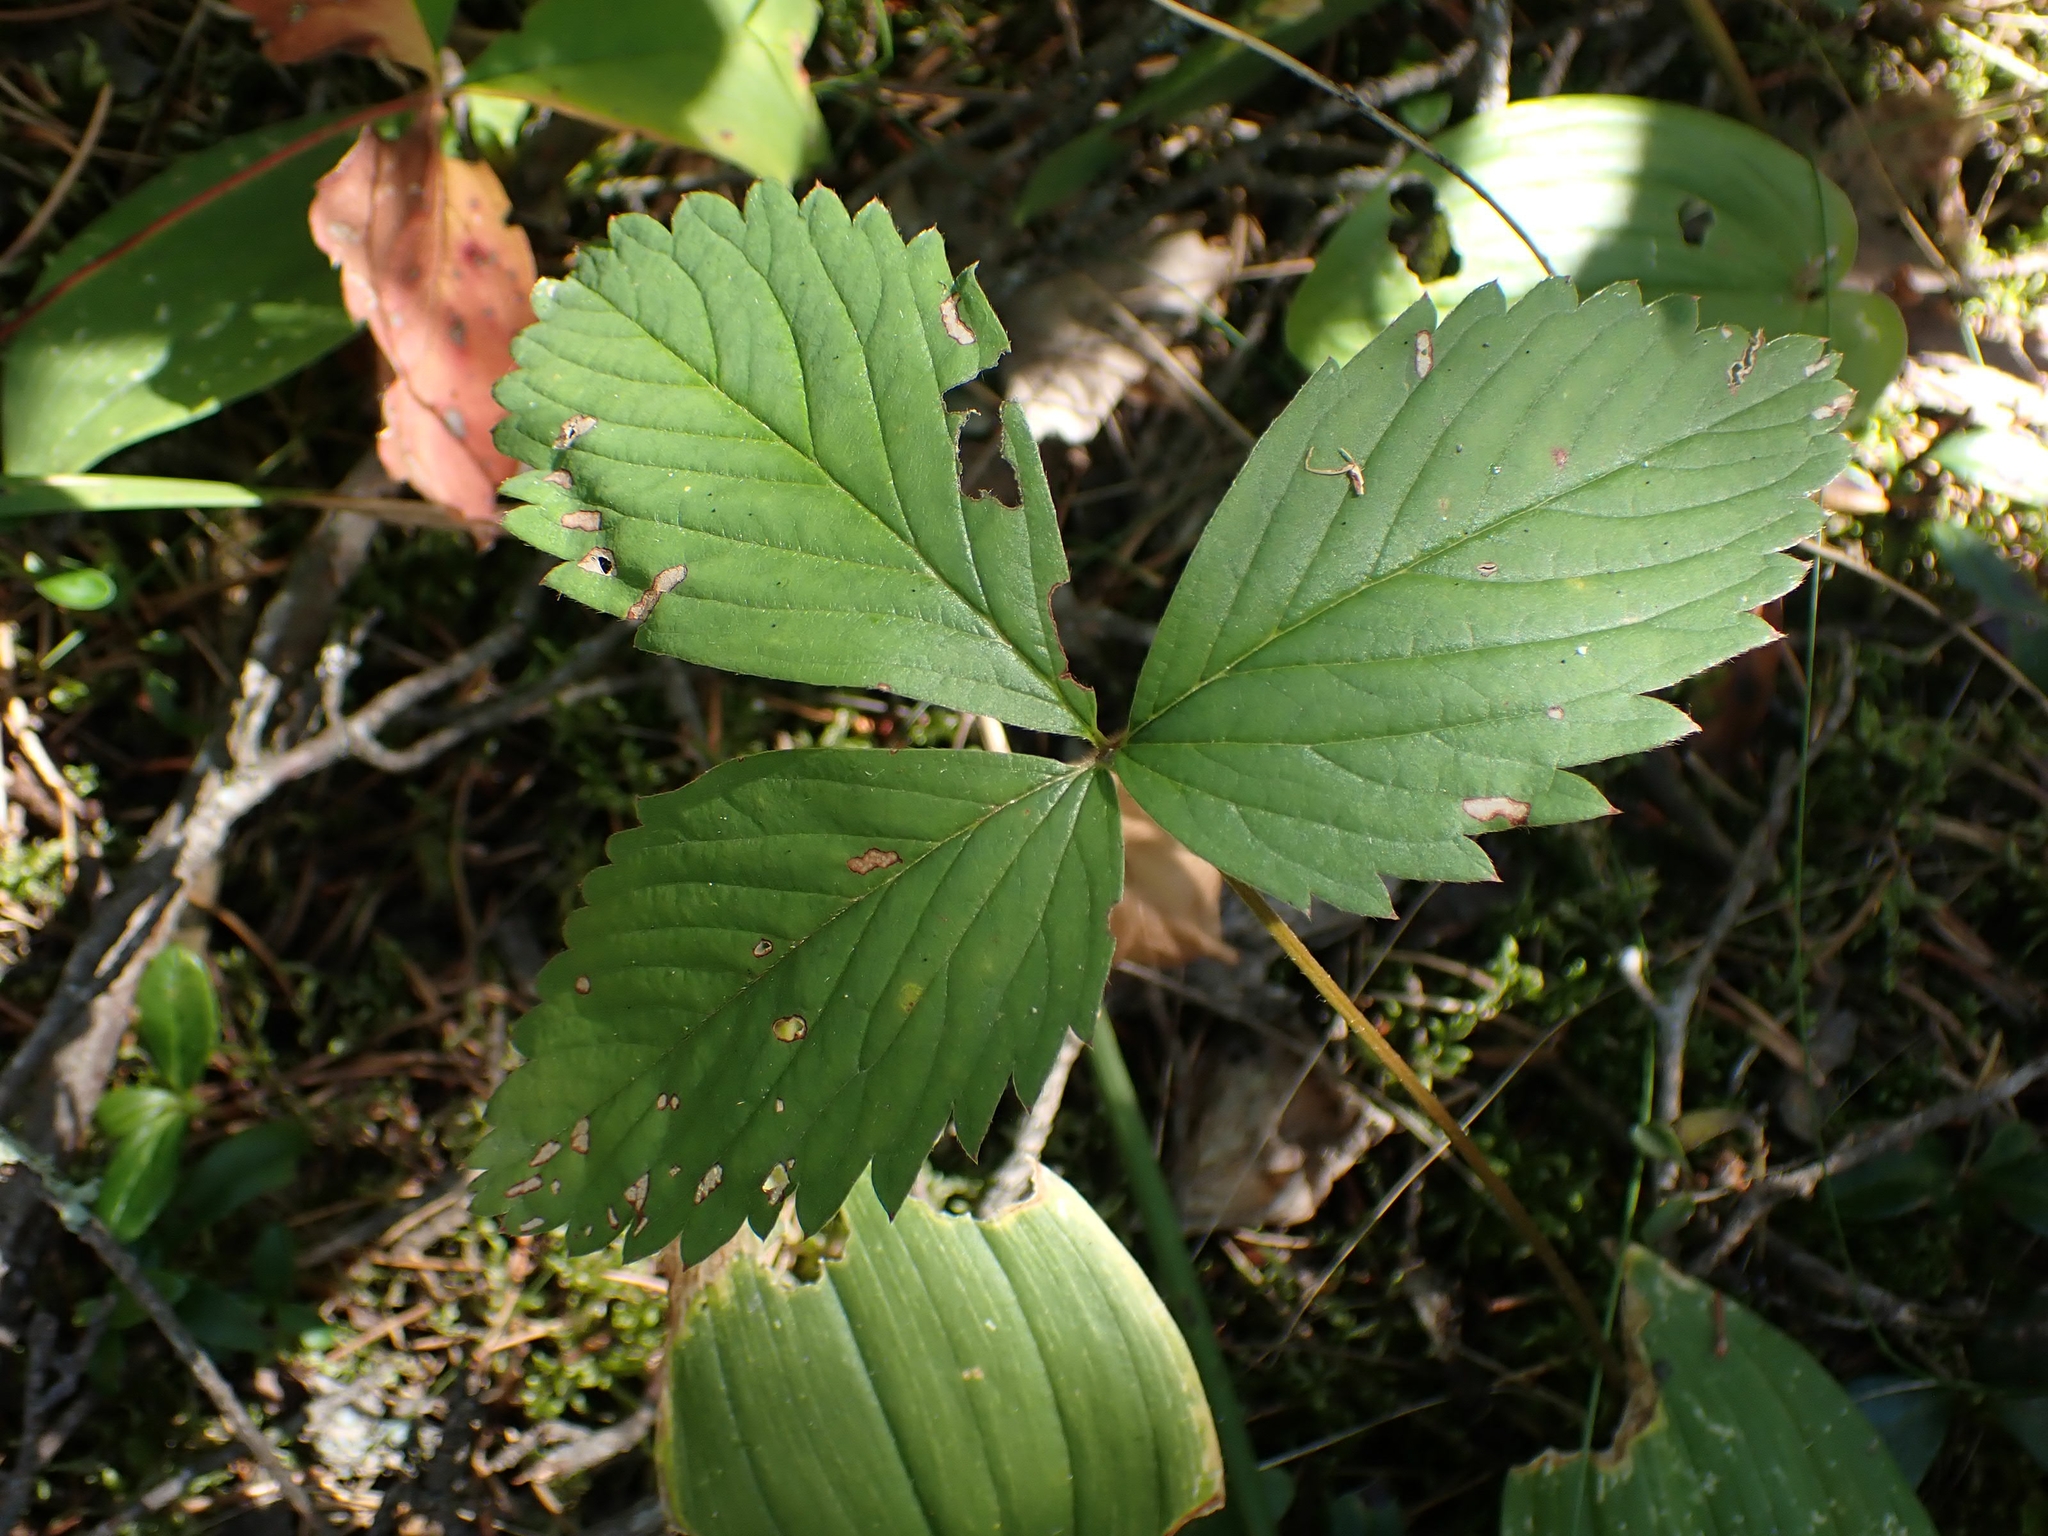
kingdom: Plantae
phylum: Tracheophyta
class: Magnoliopsida
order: Rosales
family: Rosaceae
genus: Fragaria
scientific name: Fragaria virginiana
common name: Thickleaved wild strawberry
